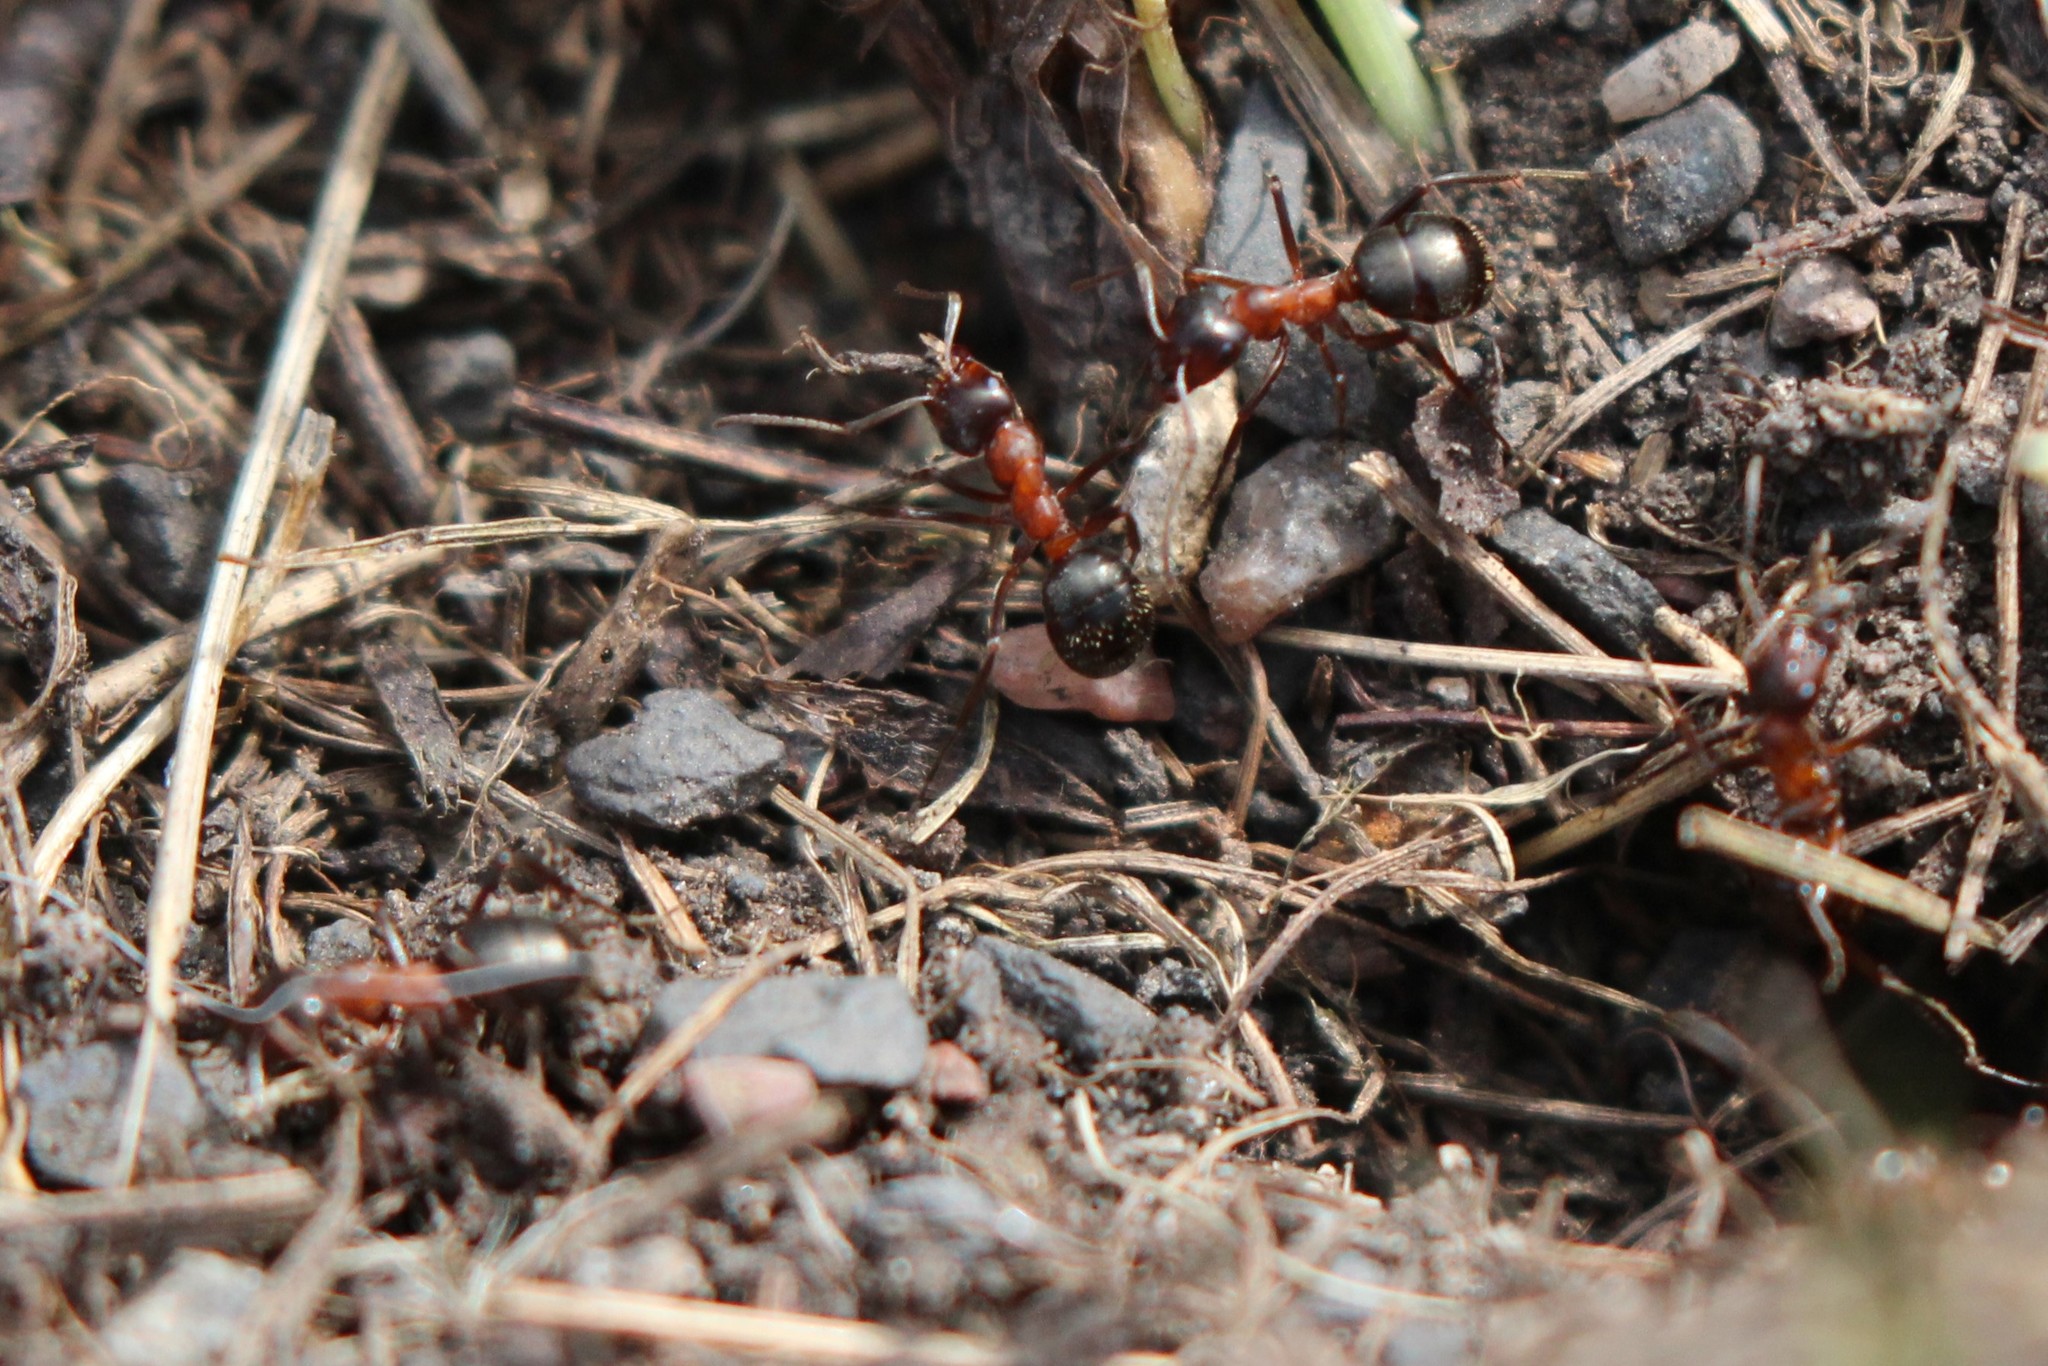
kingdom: Animalia
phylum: Arthropoda
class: Insecta
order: Hymenoptera
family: Formicidae
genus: Formica
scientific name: Formica ulkei
